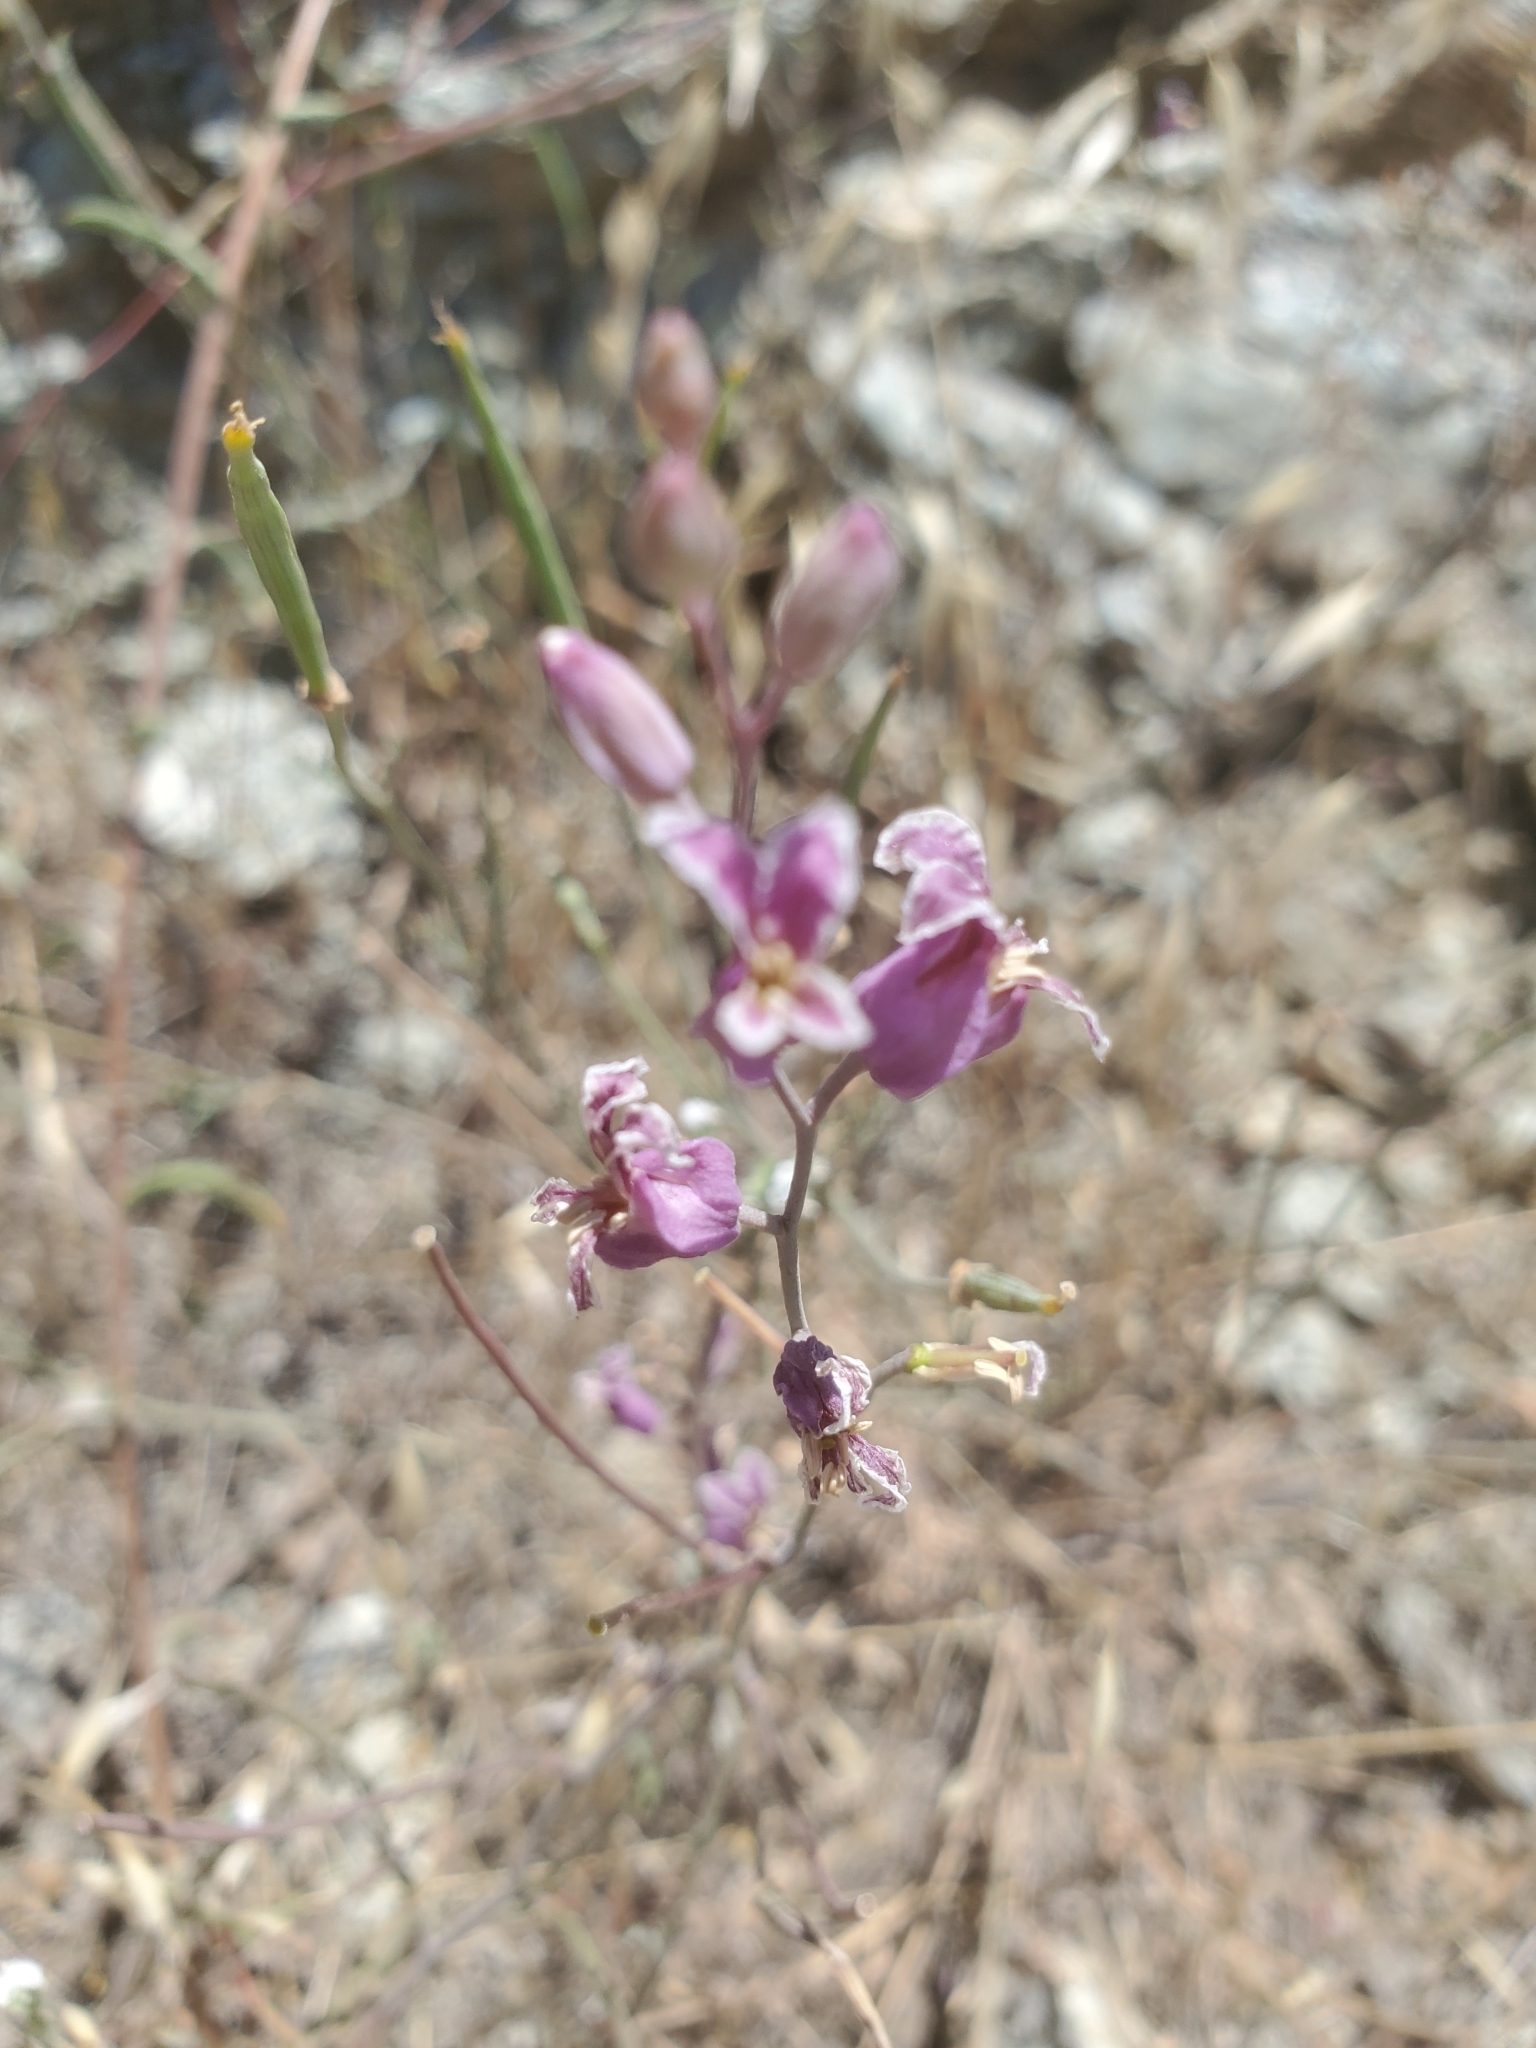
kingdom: Plantae
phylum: Tracheophyta
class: Magnoliopsida
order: Brassicales
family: Brassicaceae
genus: Streptanthus
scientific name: Streptanthus glandulosus
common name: Jewel-flower
